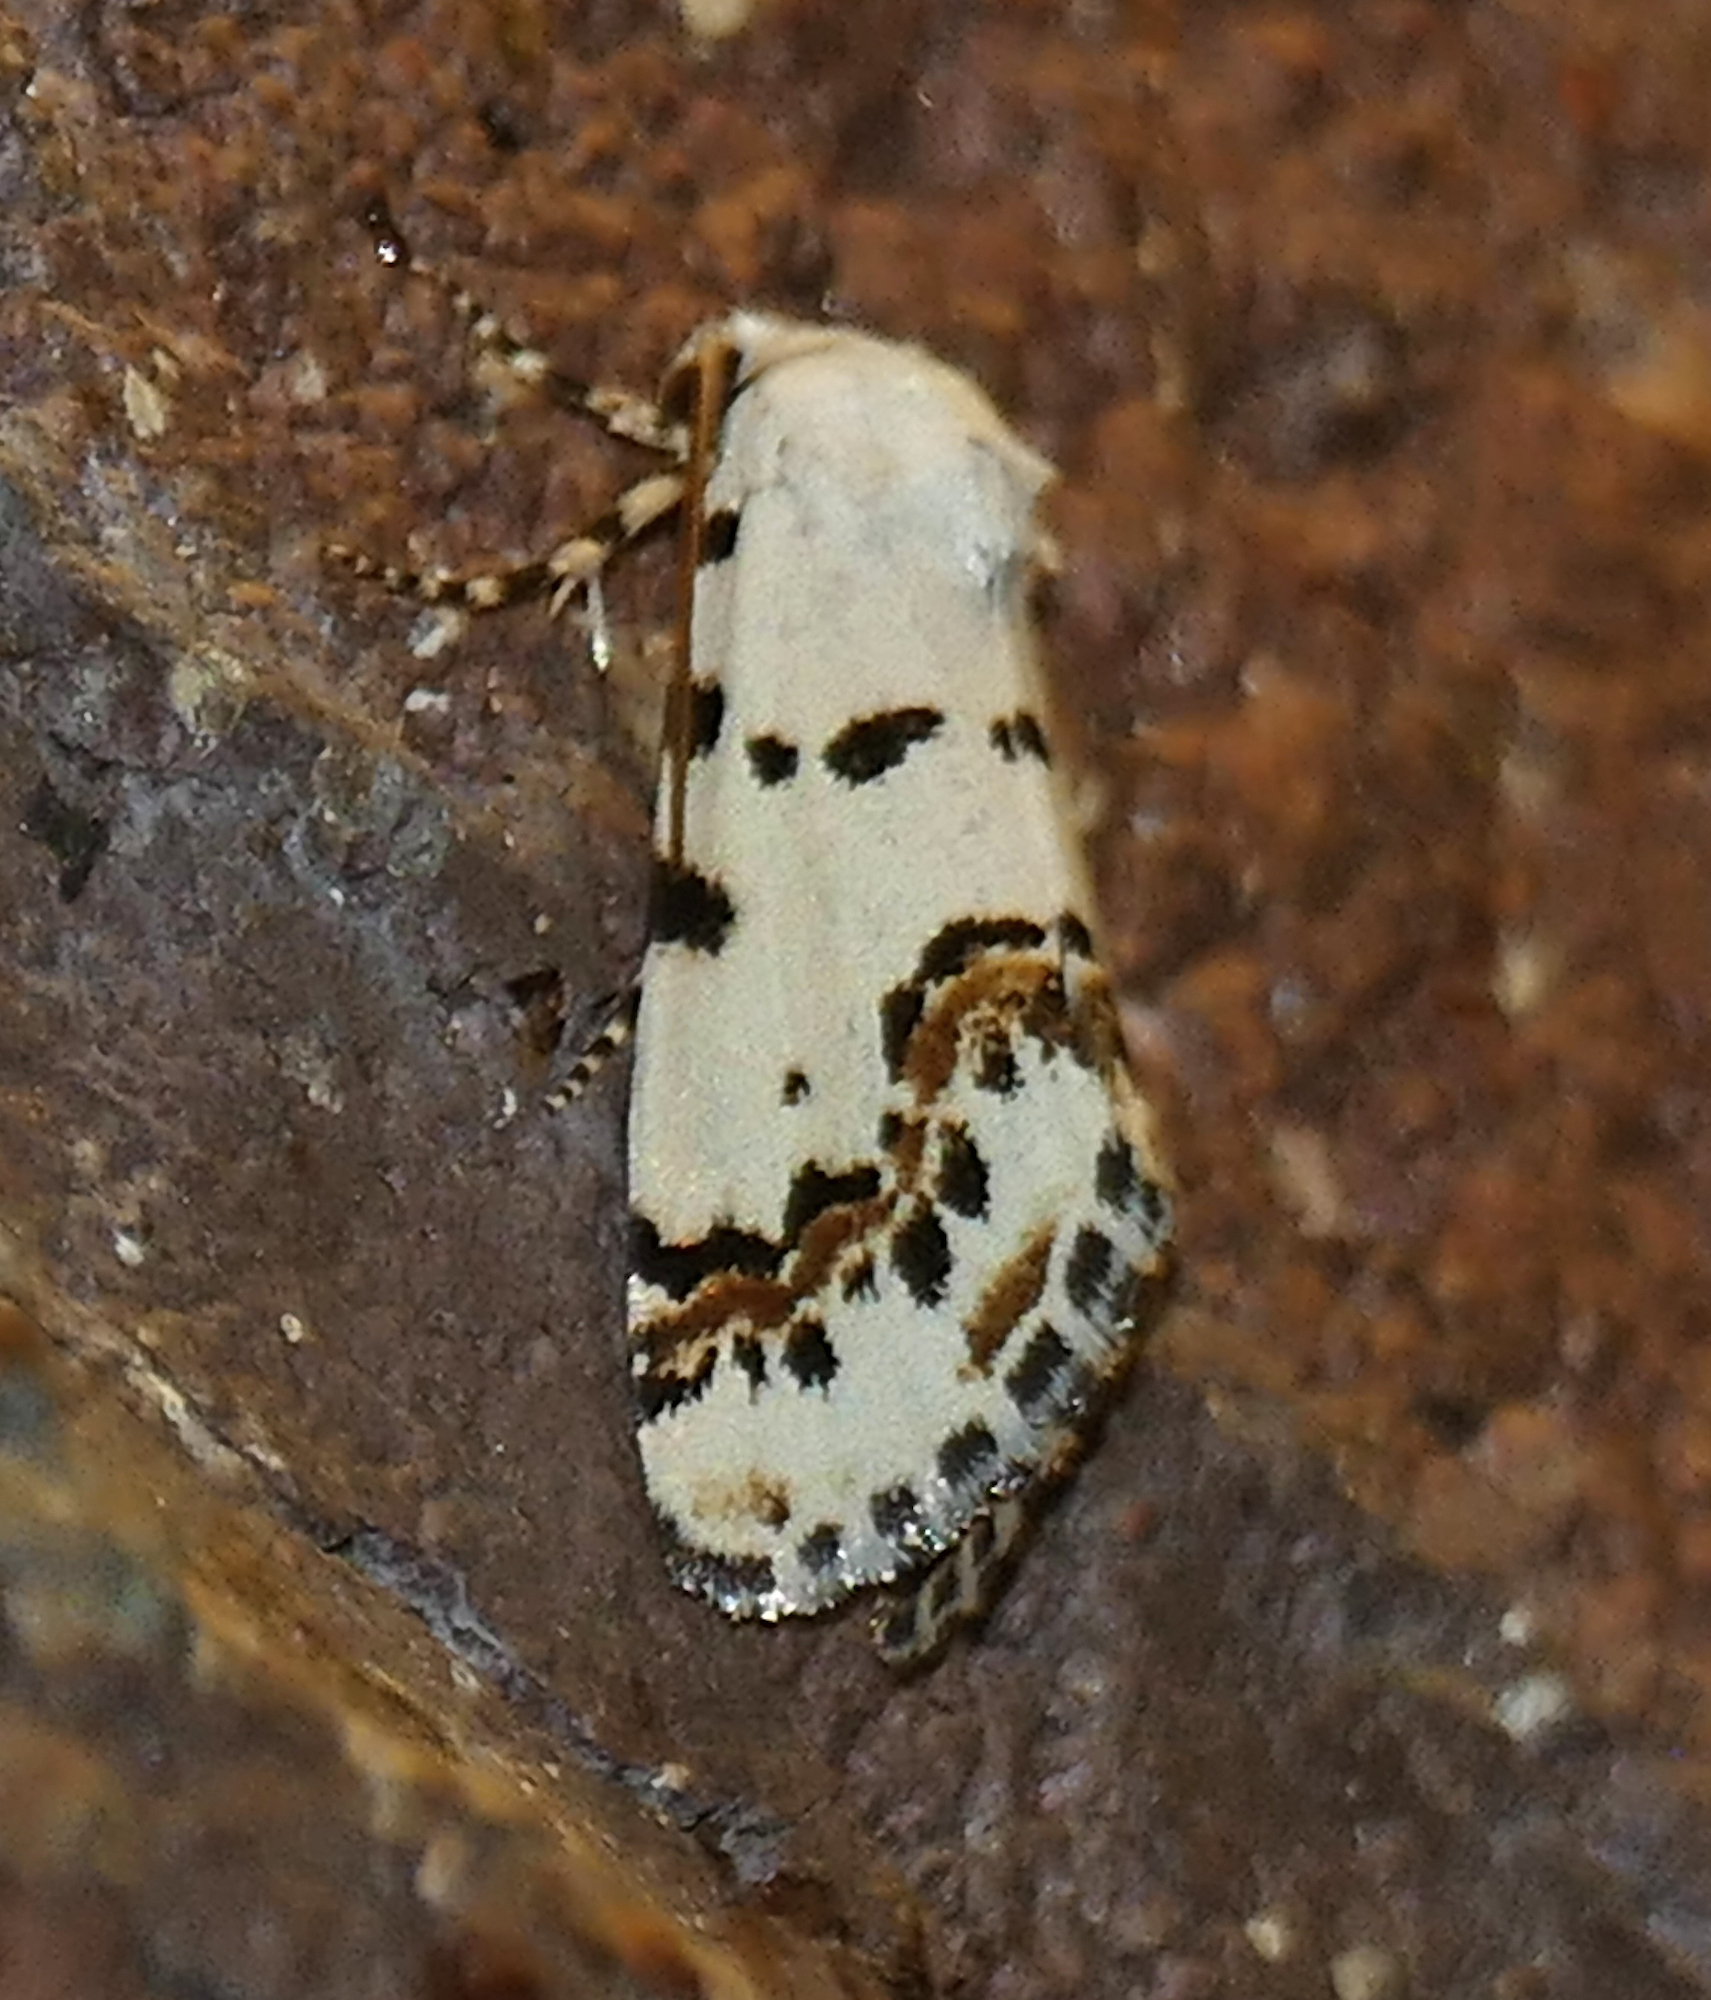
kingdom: Animalia
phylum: Arthropoda
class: Insecta
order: Lepidoptera
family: Noctuidae
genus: Grotella
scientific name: Grotella tricolor
